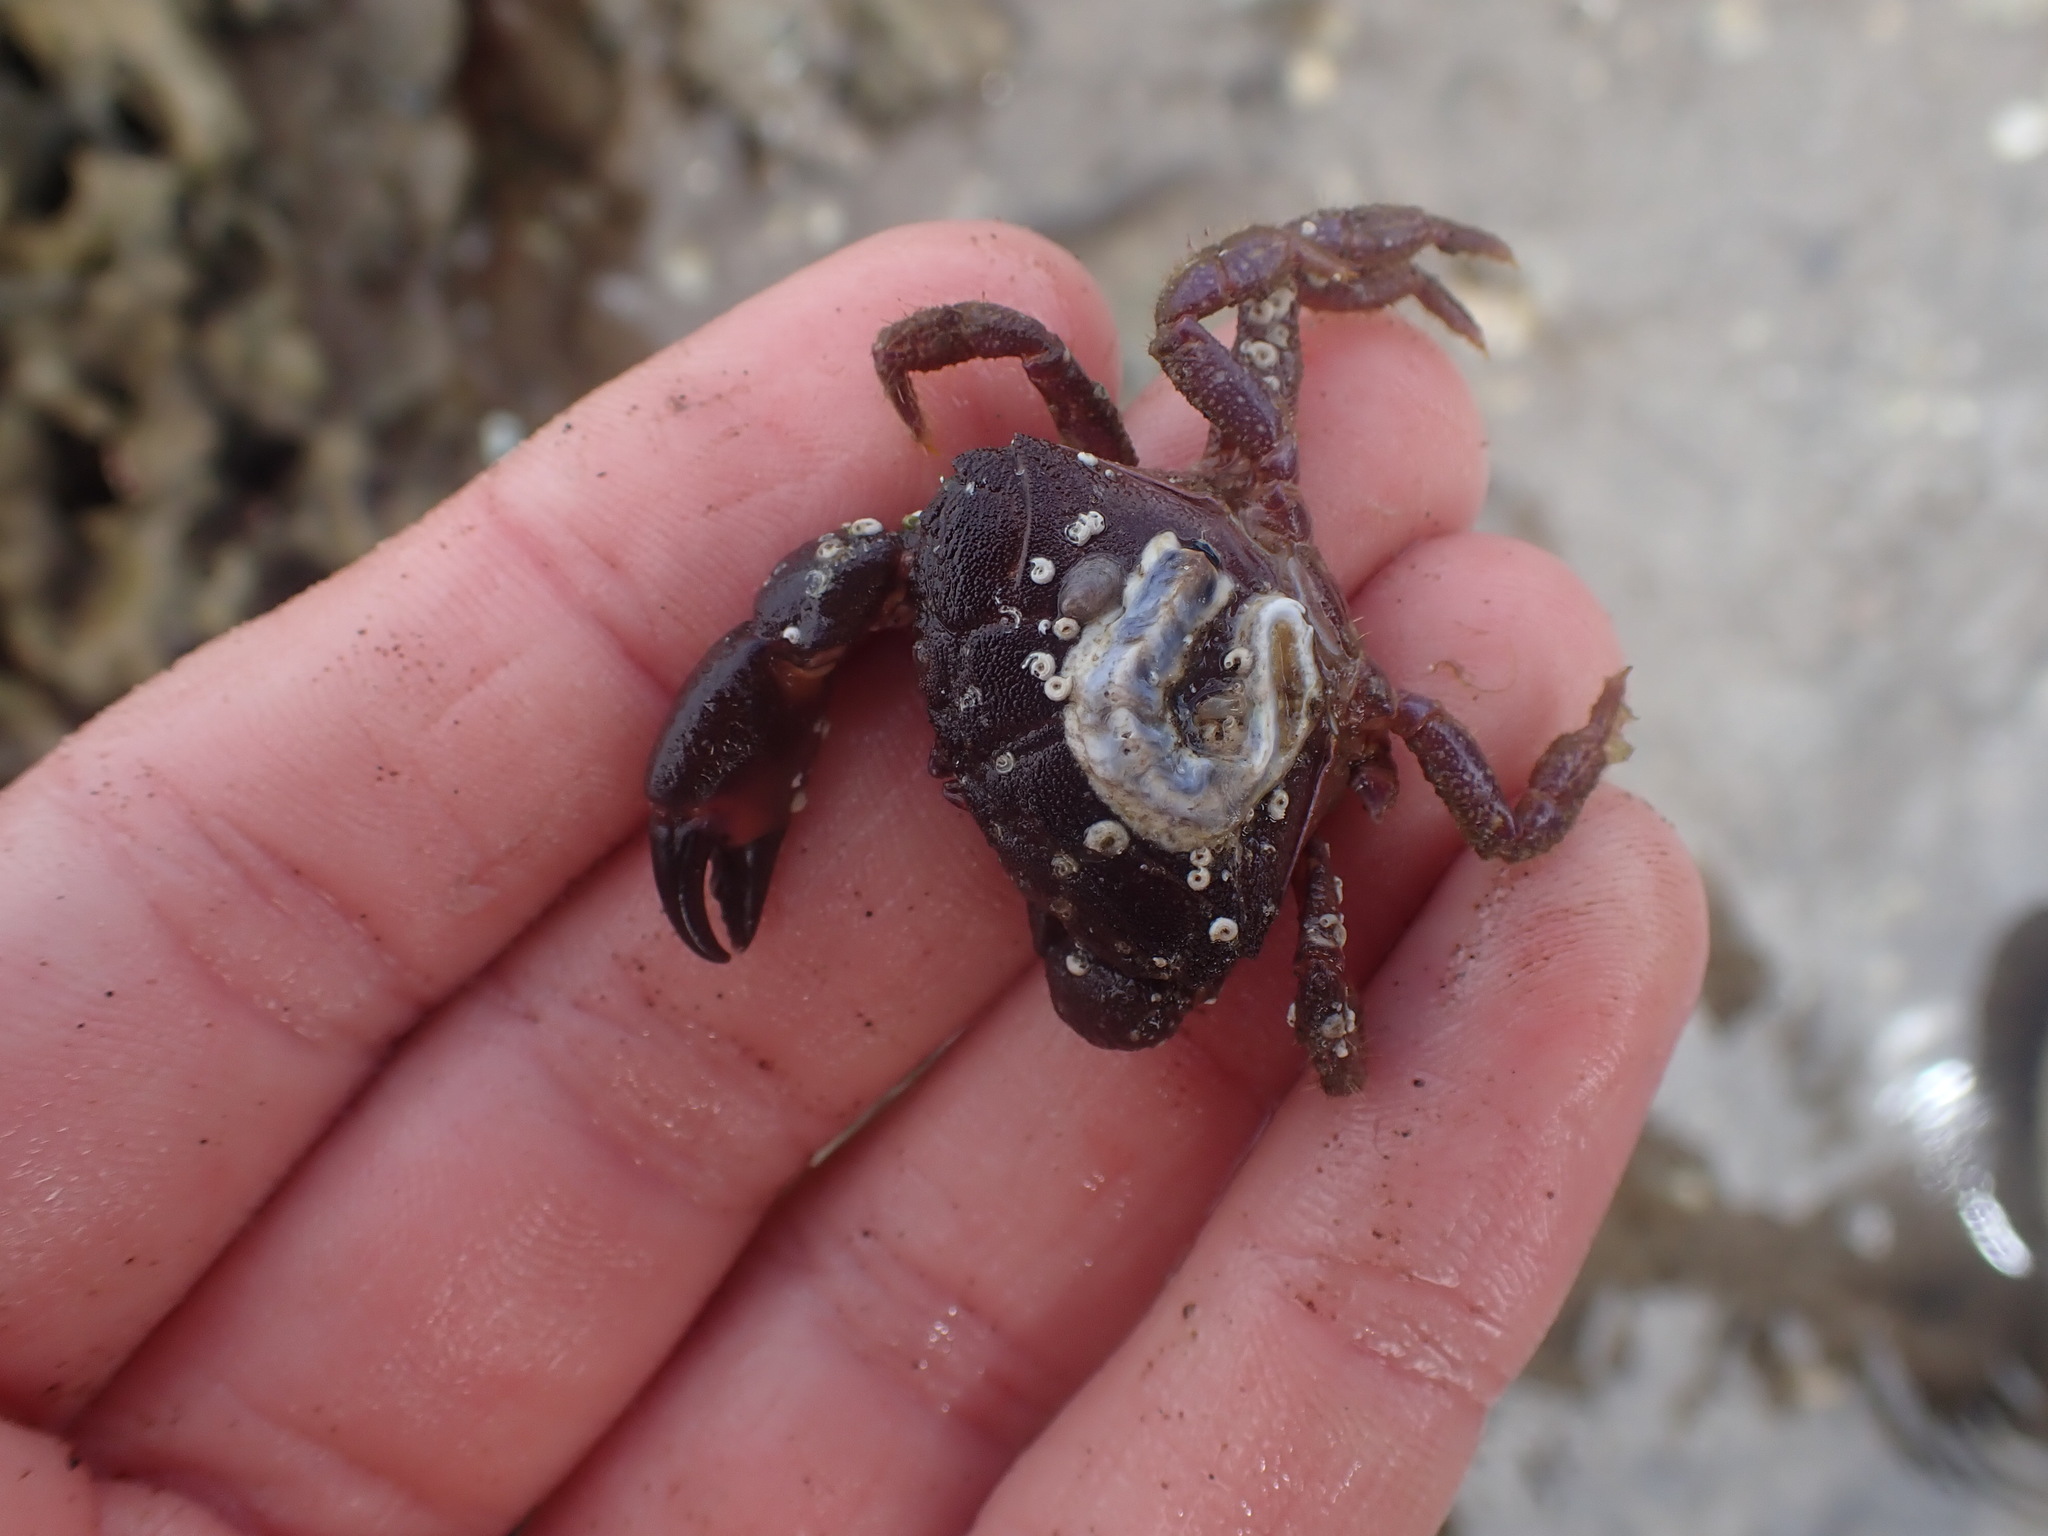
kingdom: Animalia
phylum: Arthropoda
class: Malacostraca
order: Decapoda
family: Oziidae
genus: Ozius
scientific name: Ozius deplanatus
